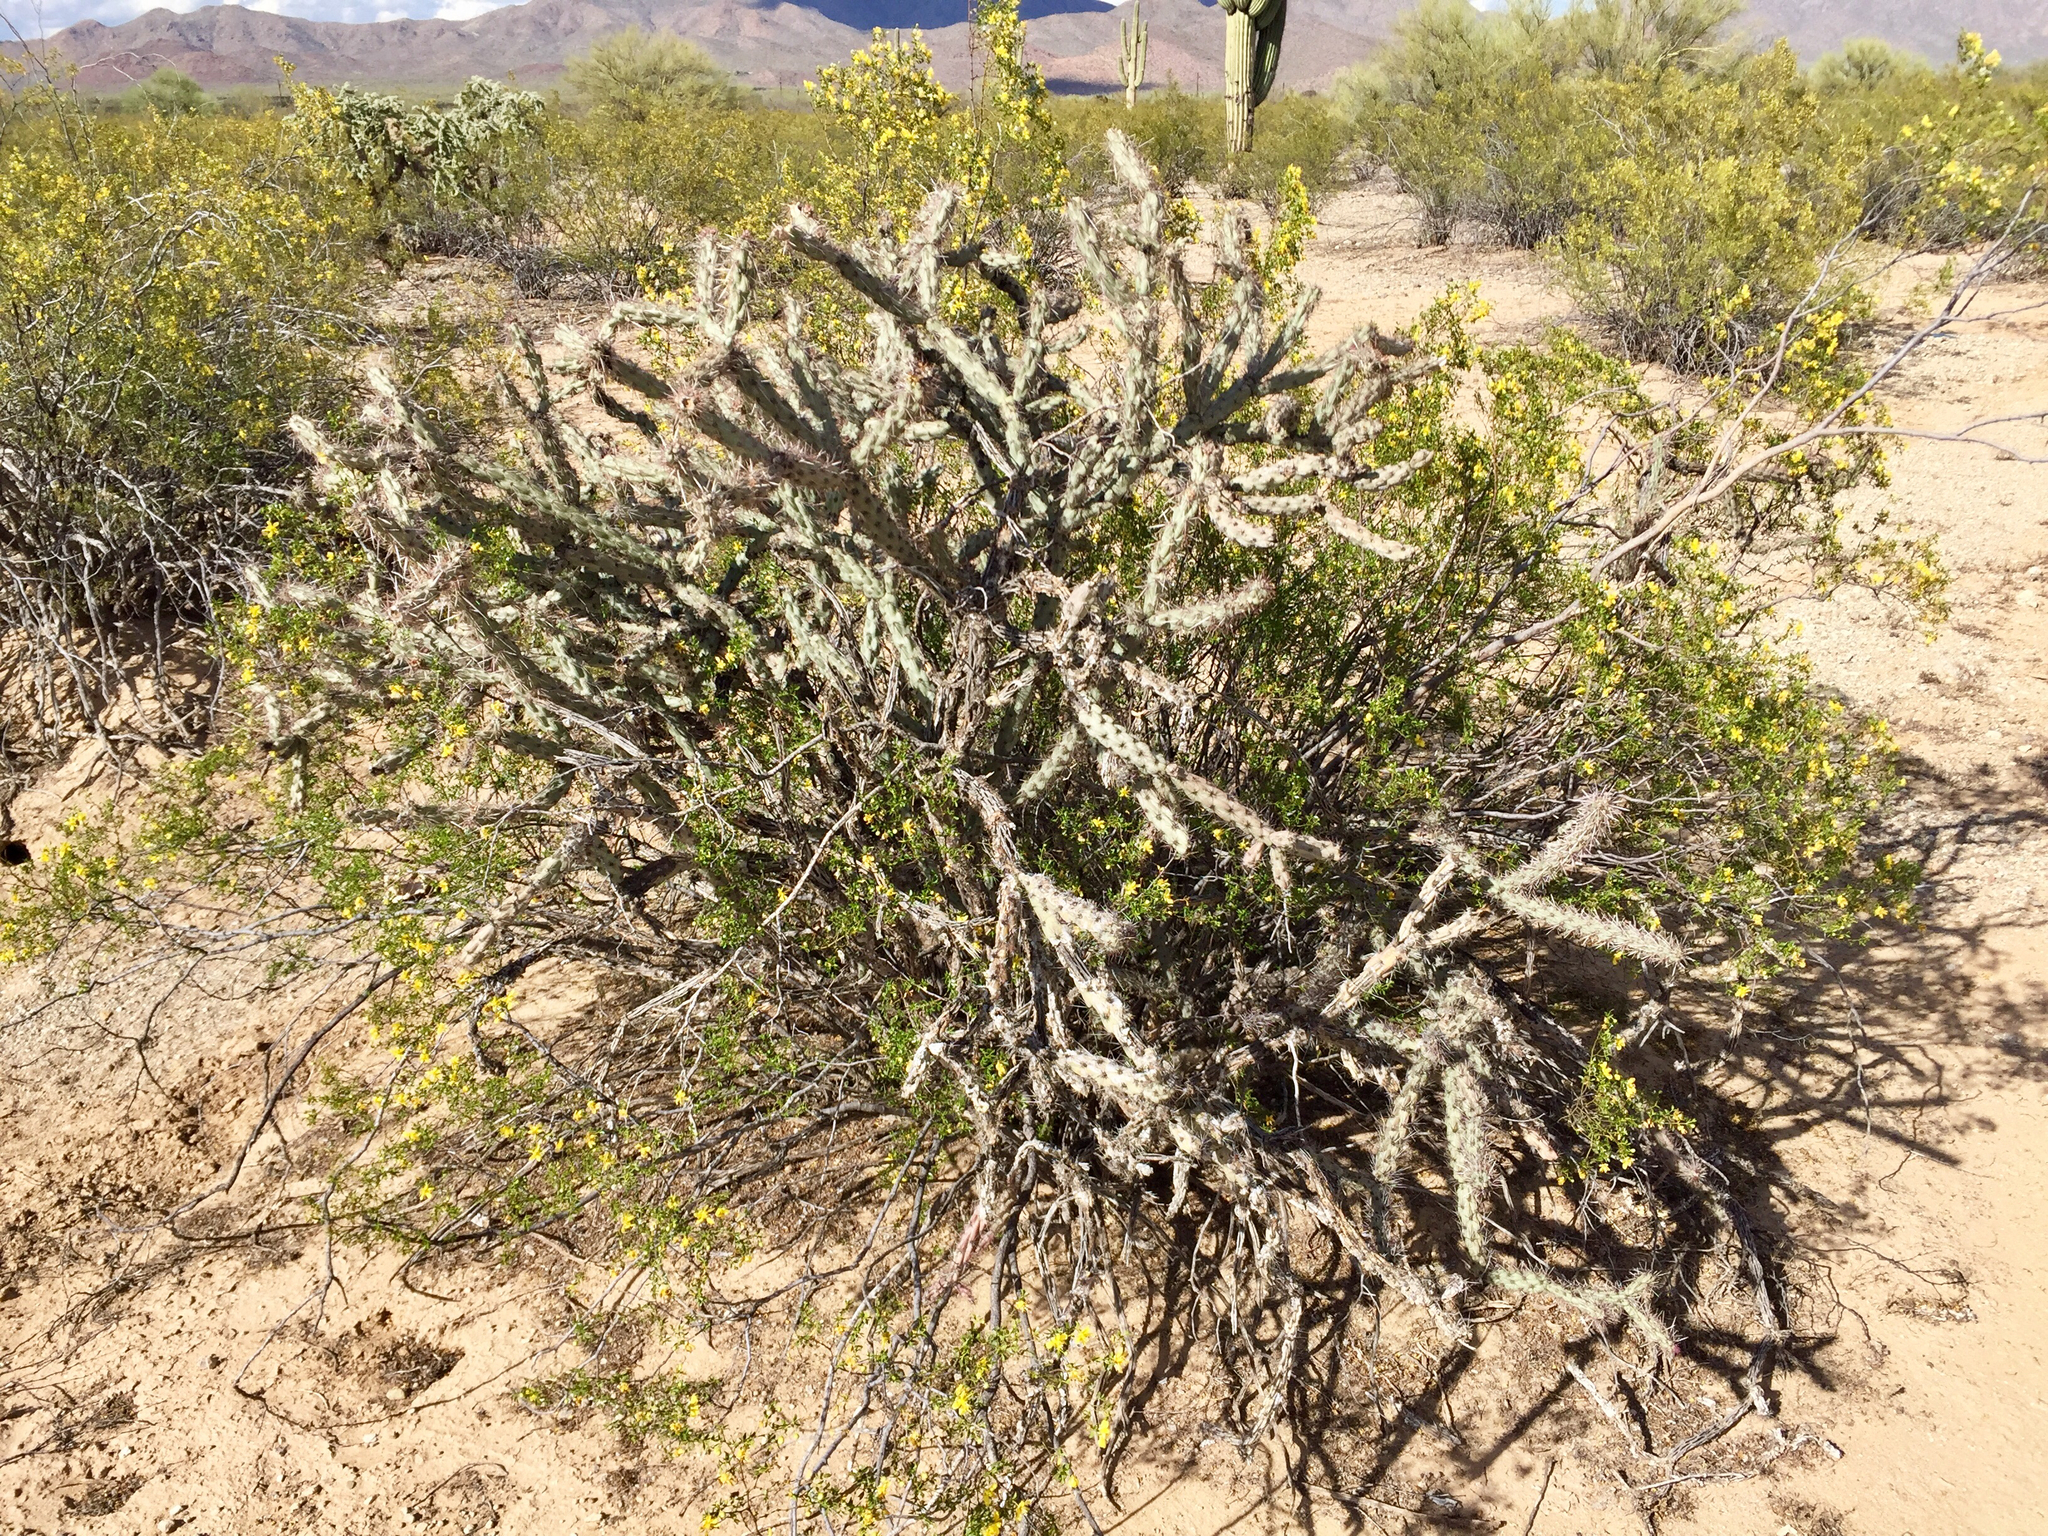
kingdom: Plantae
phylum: Tracheophyta
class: Magnoliopsida
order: Caryophyllales
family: Cactaceae
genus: Cylindropuntia
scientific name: Cylindropuntia acanthocarpa
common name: Buckhorn cholla
